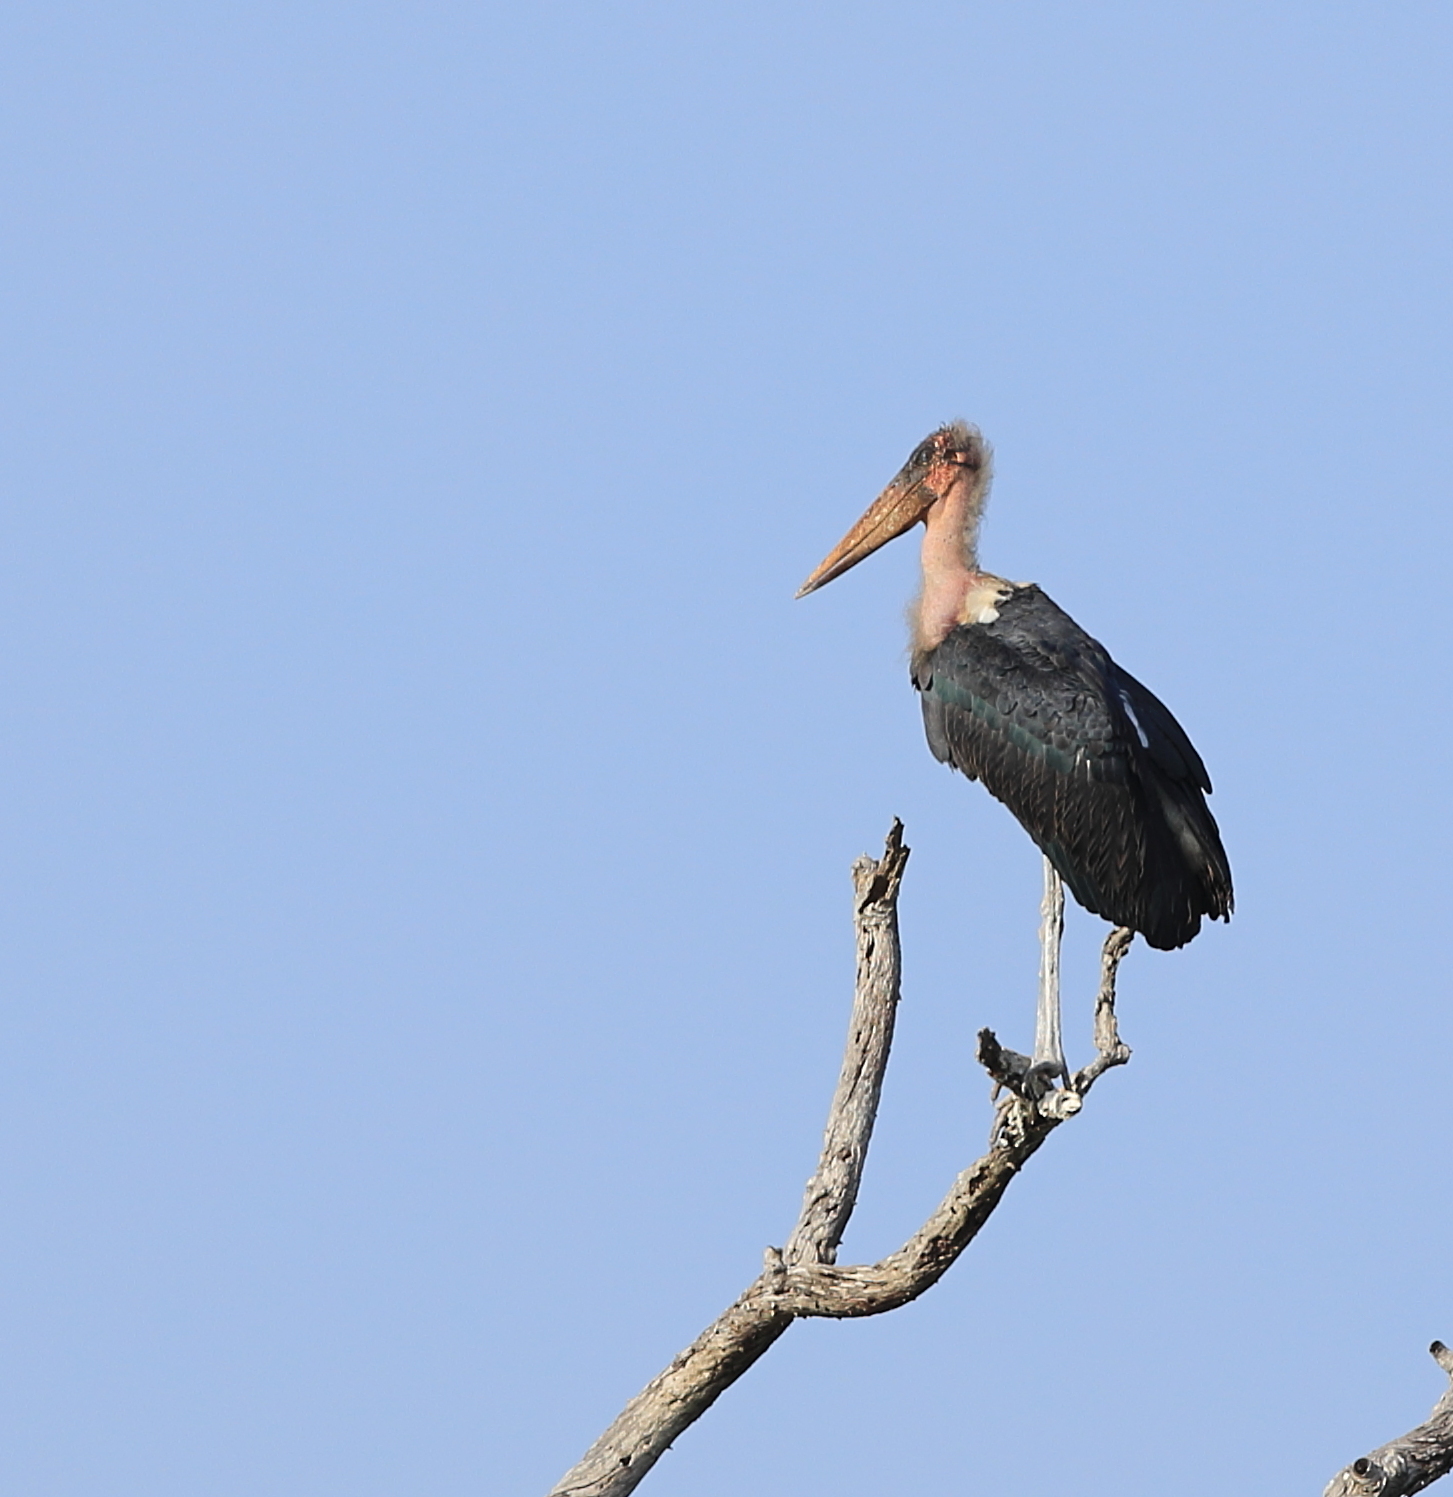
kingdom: Animalia
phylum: Chordata
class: Aves
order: Ciconiiformes
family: Ciconiidae
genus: Leptoptilos
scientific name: Leptoptilos crumenifer
